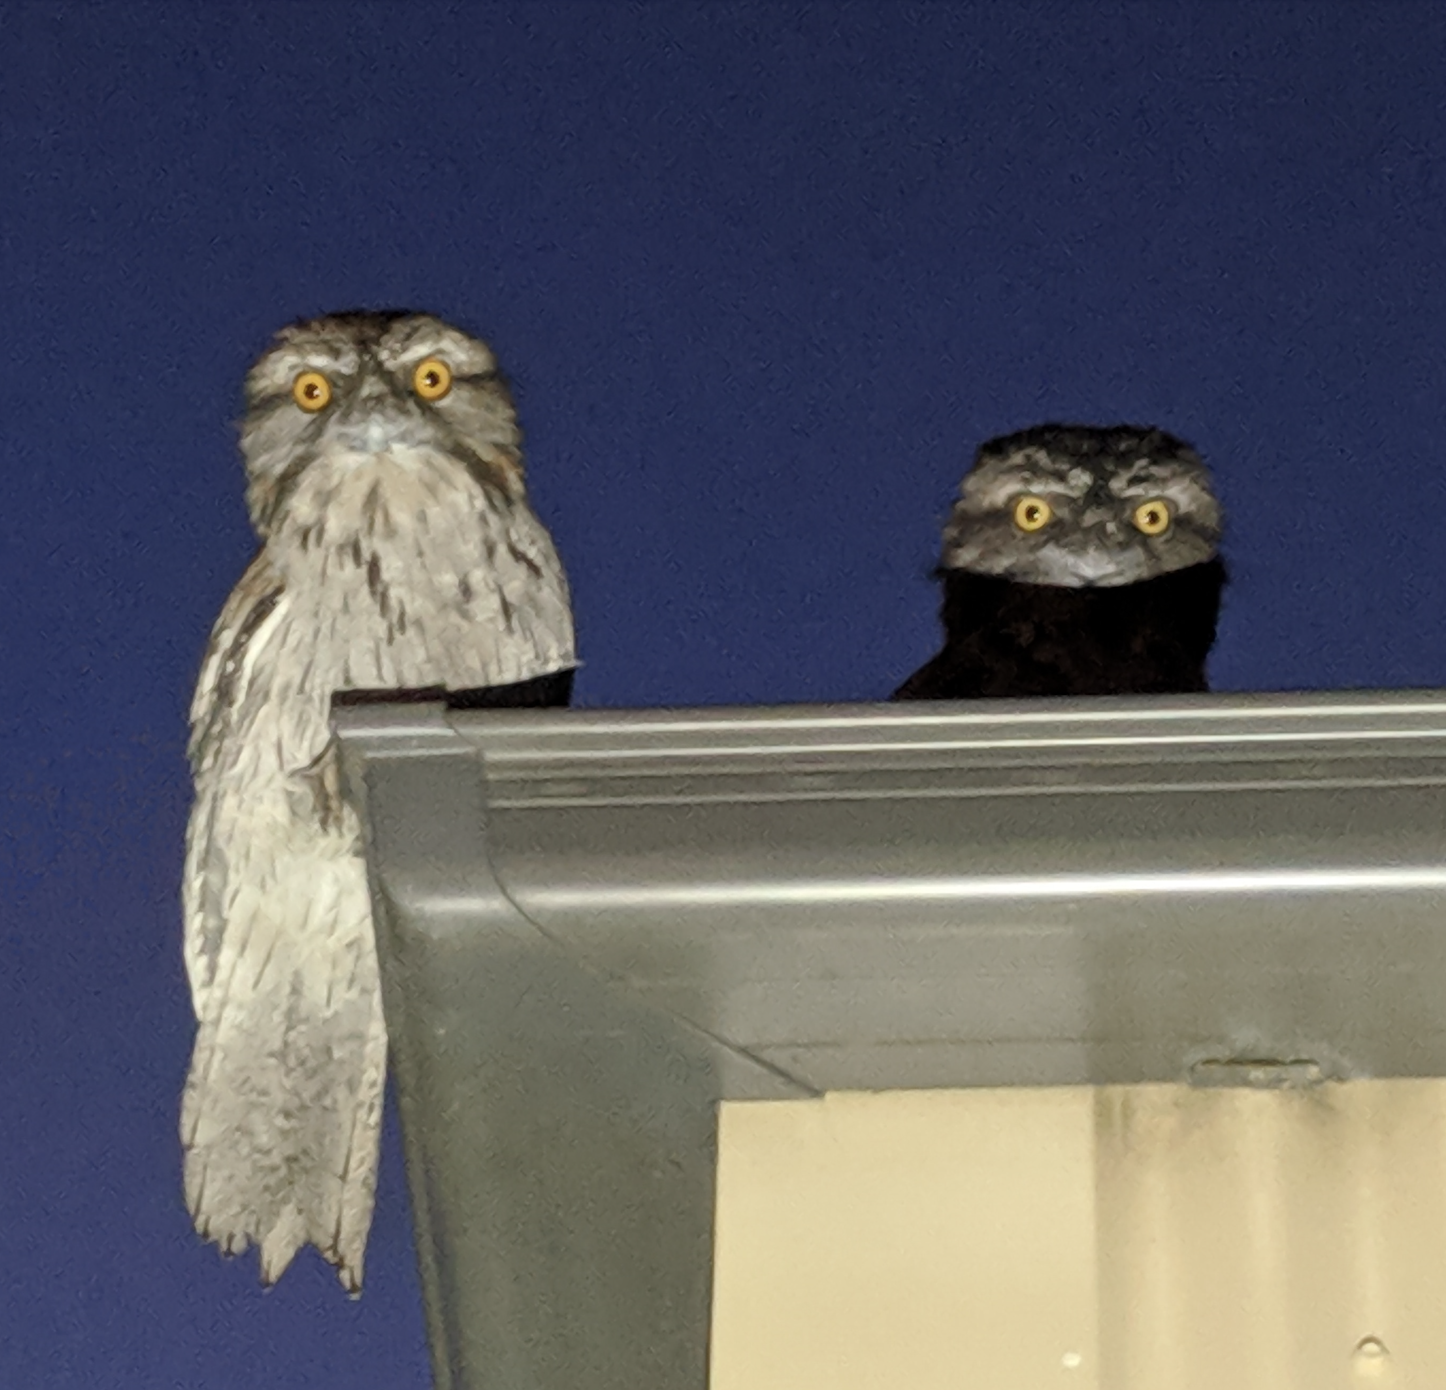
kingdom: Animalia
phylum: Chordata
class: Aves
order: Caprimulgiformes
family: Podargidae
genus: Podargus
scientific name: Podargus strigoides
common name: Tawny frogmouth
